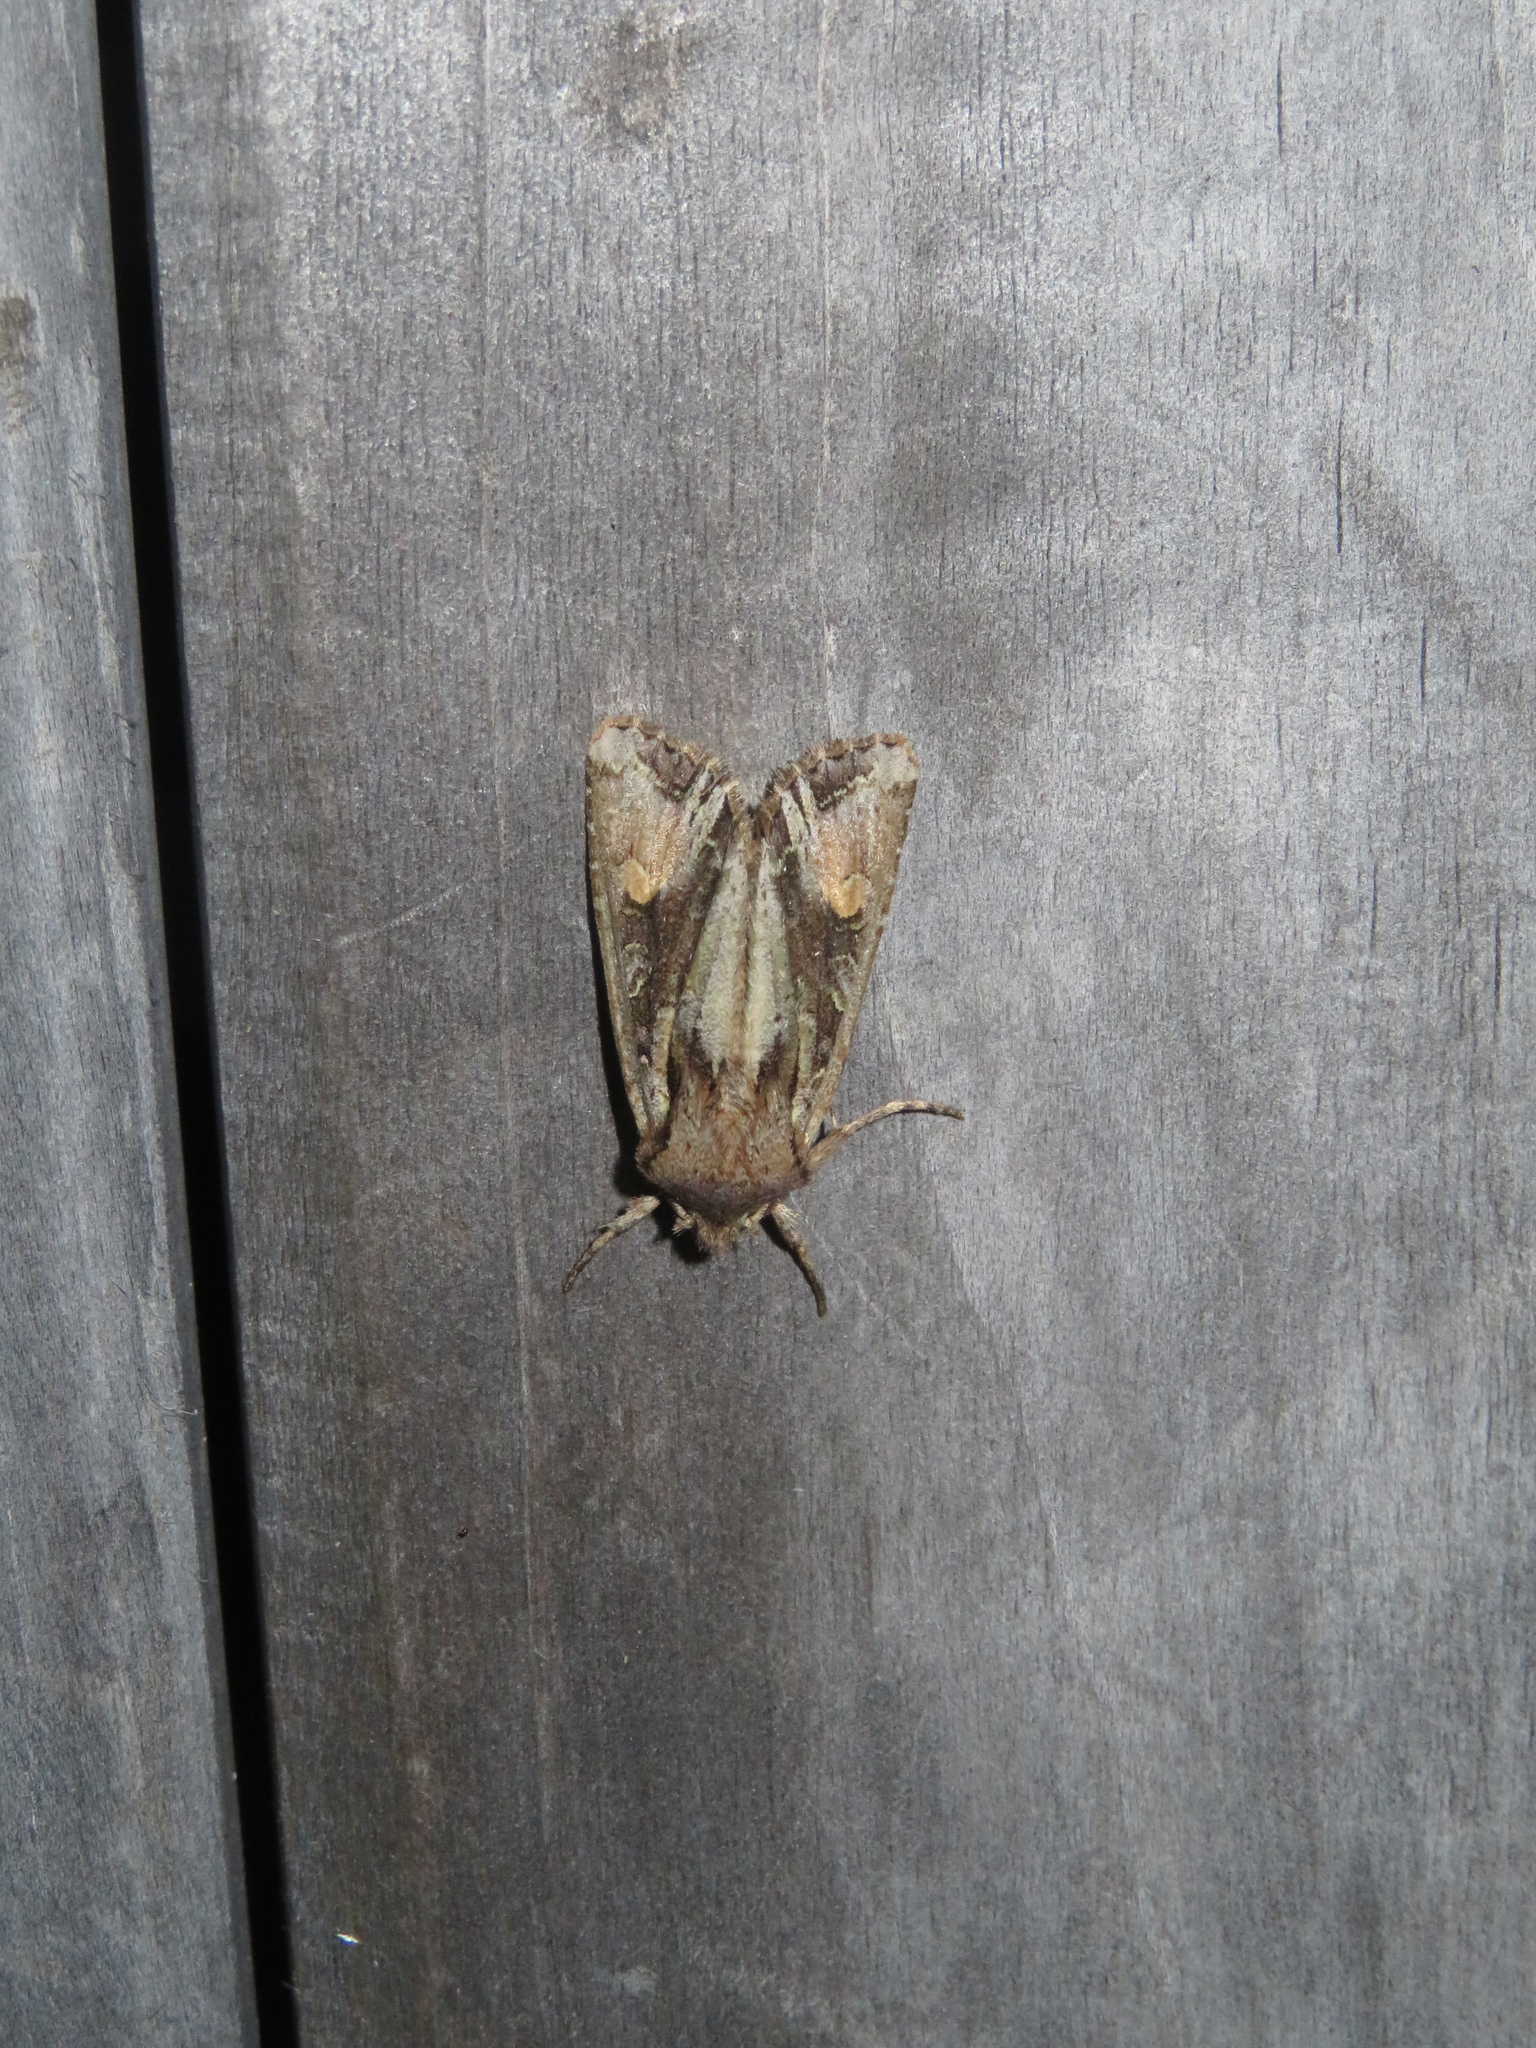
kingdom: Animalia
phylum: Arthropoda
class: Insecta
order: Lepidoptera
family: Noctuidae
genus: Ichneutica
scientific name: Ichneutica
